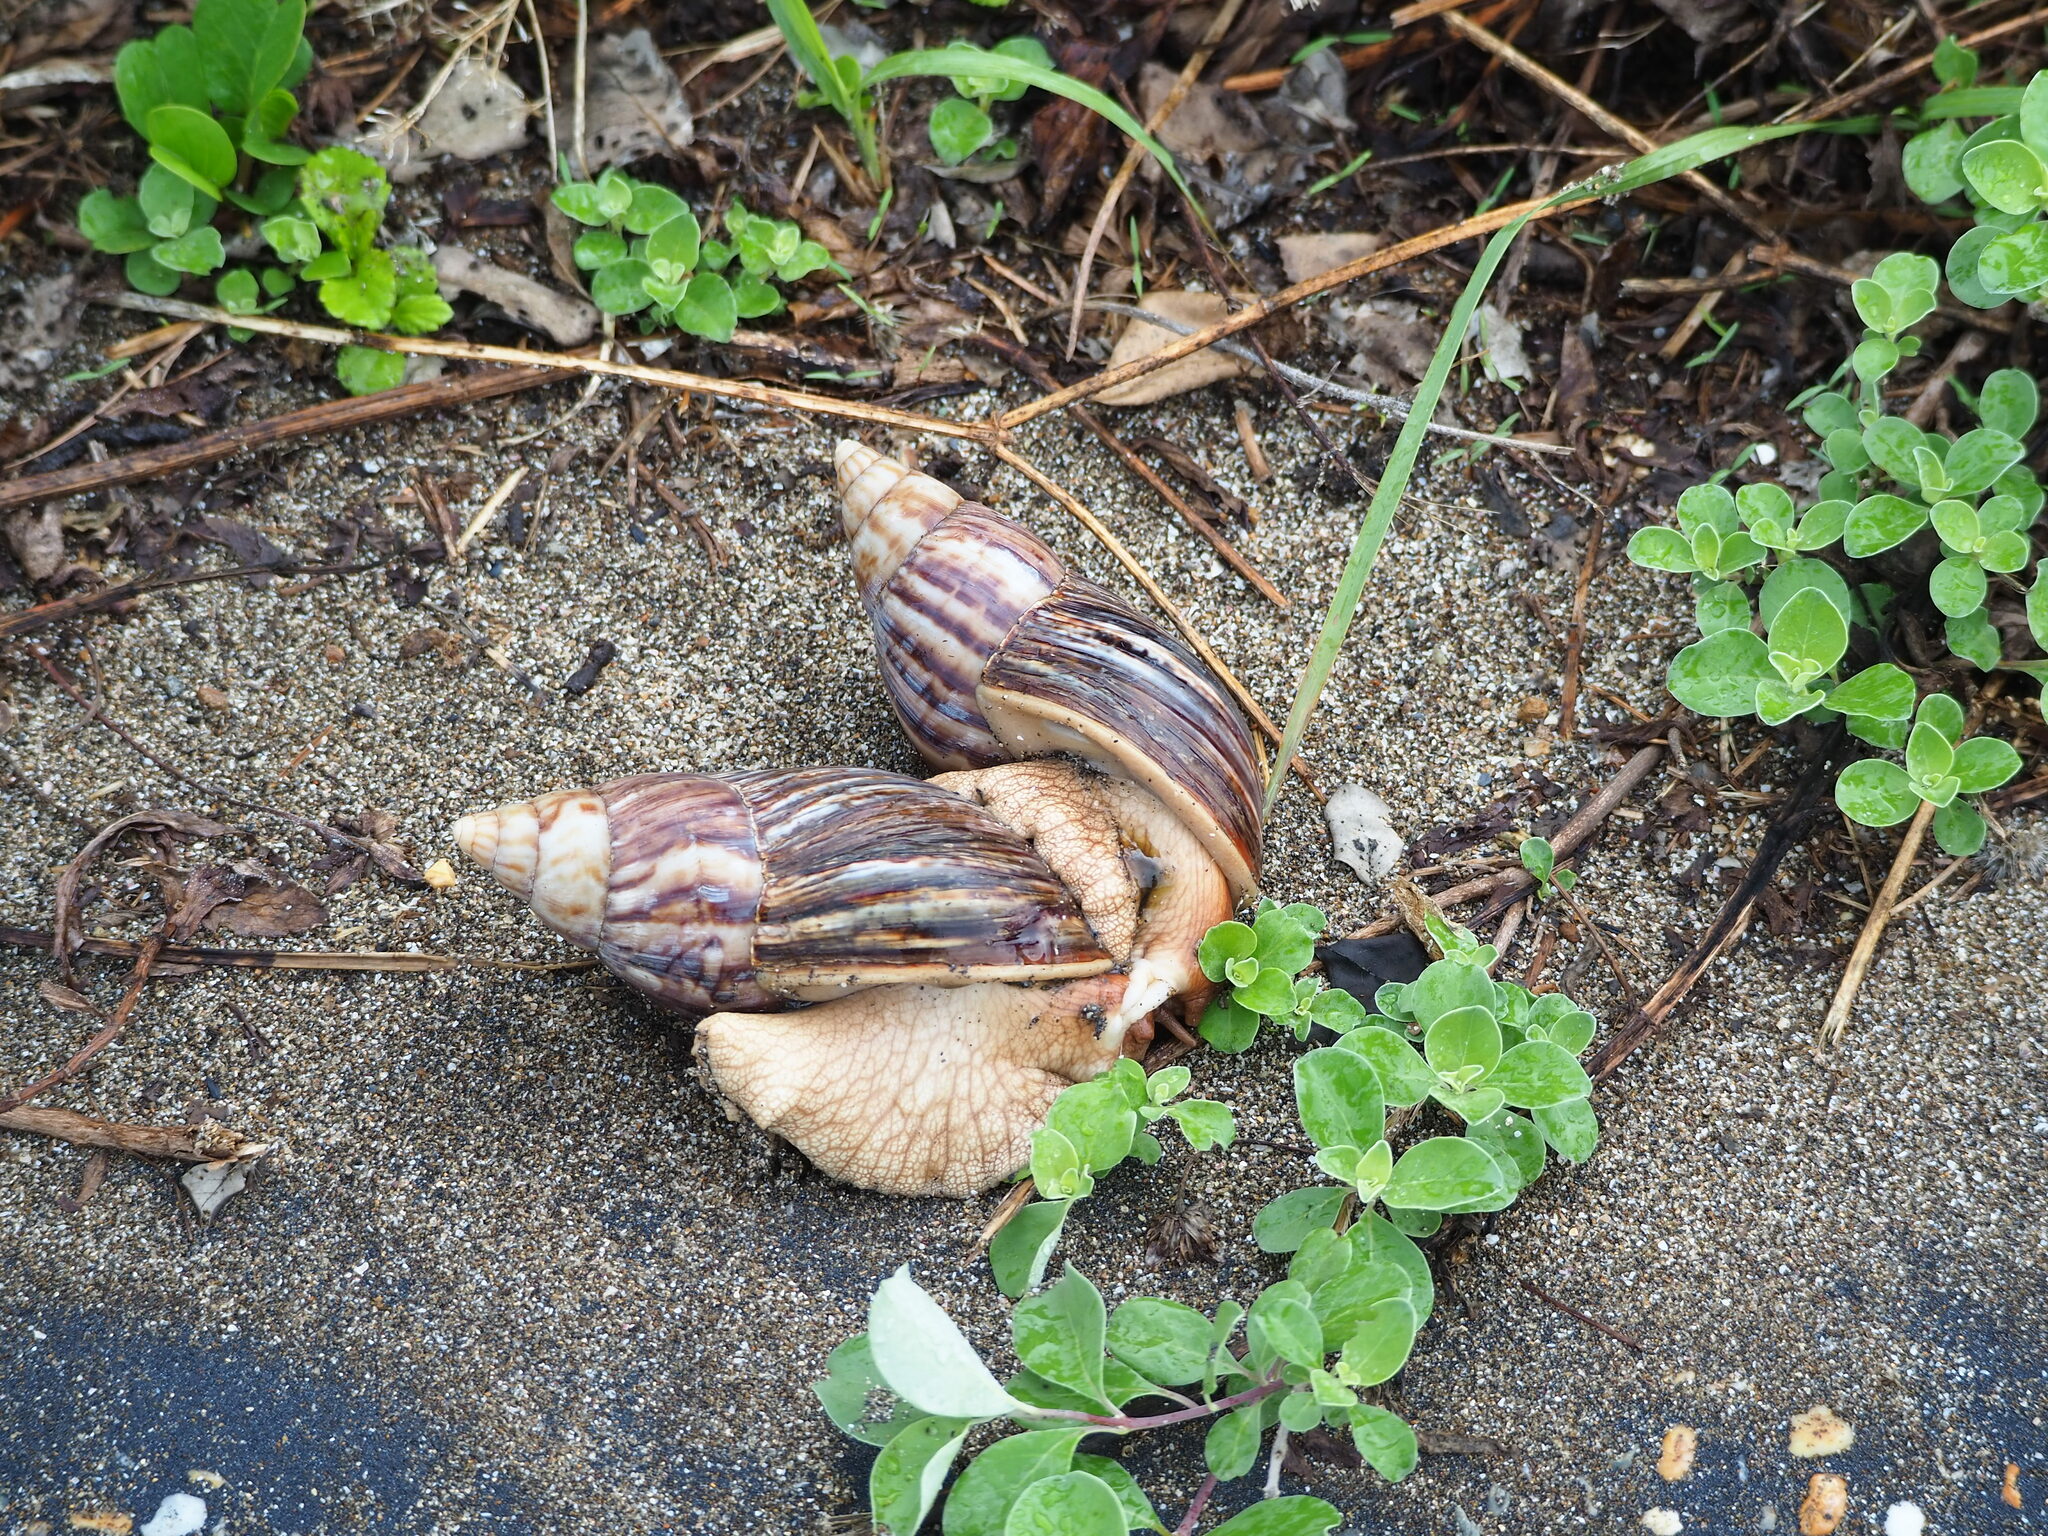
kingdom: Animalia
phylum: Mollusca
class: Gastropoda
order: Stylommatophora
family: Achatinidae
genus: Lissachatina
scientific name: Lissachatina immaculata
